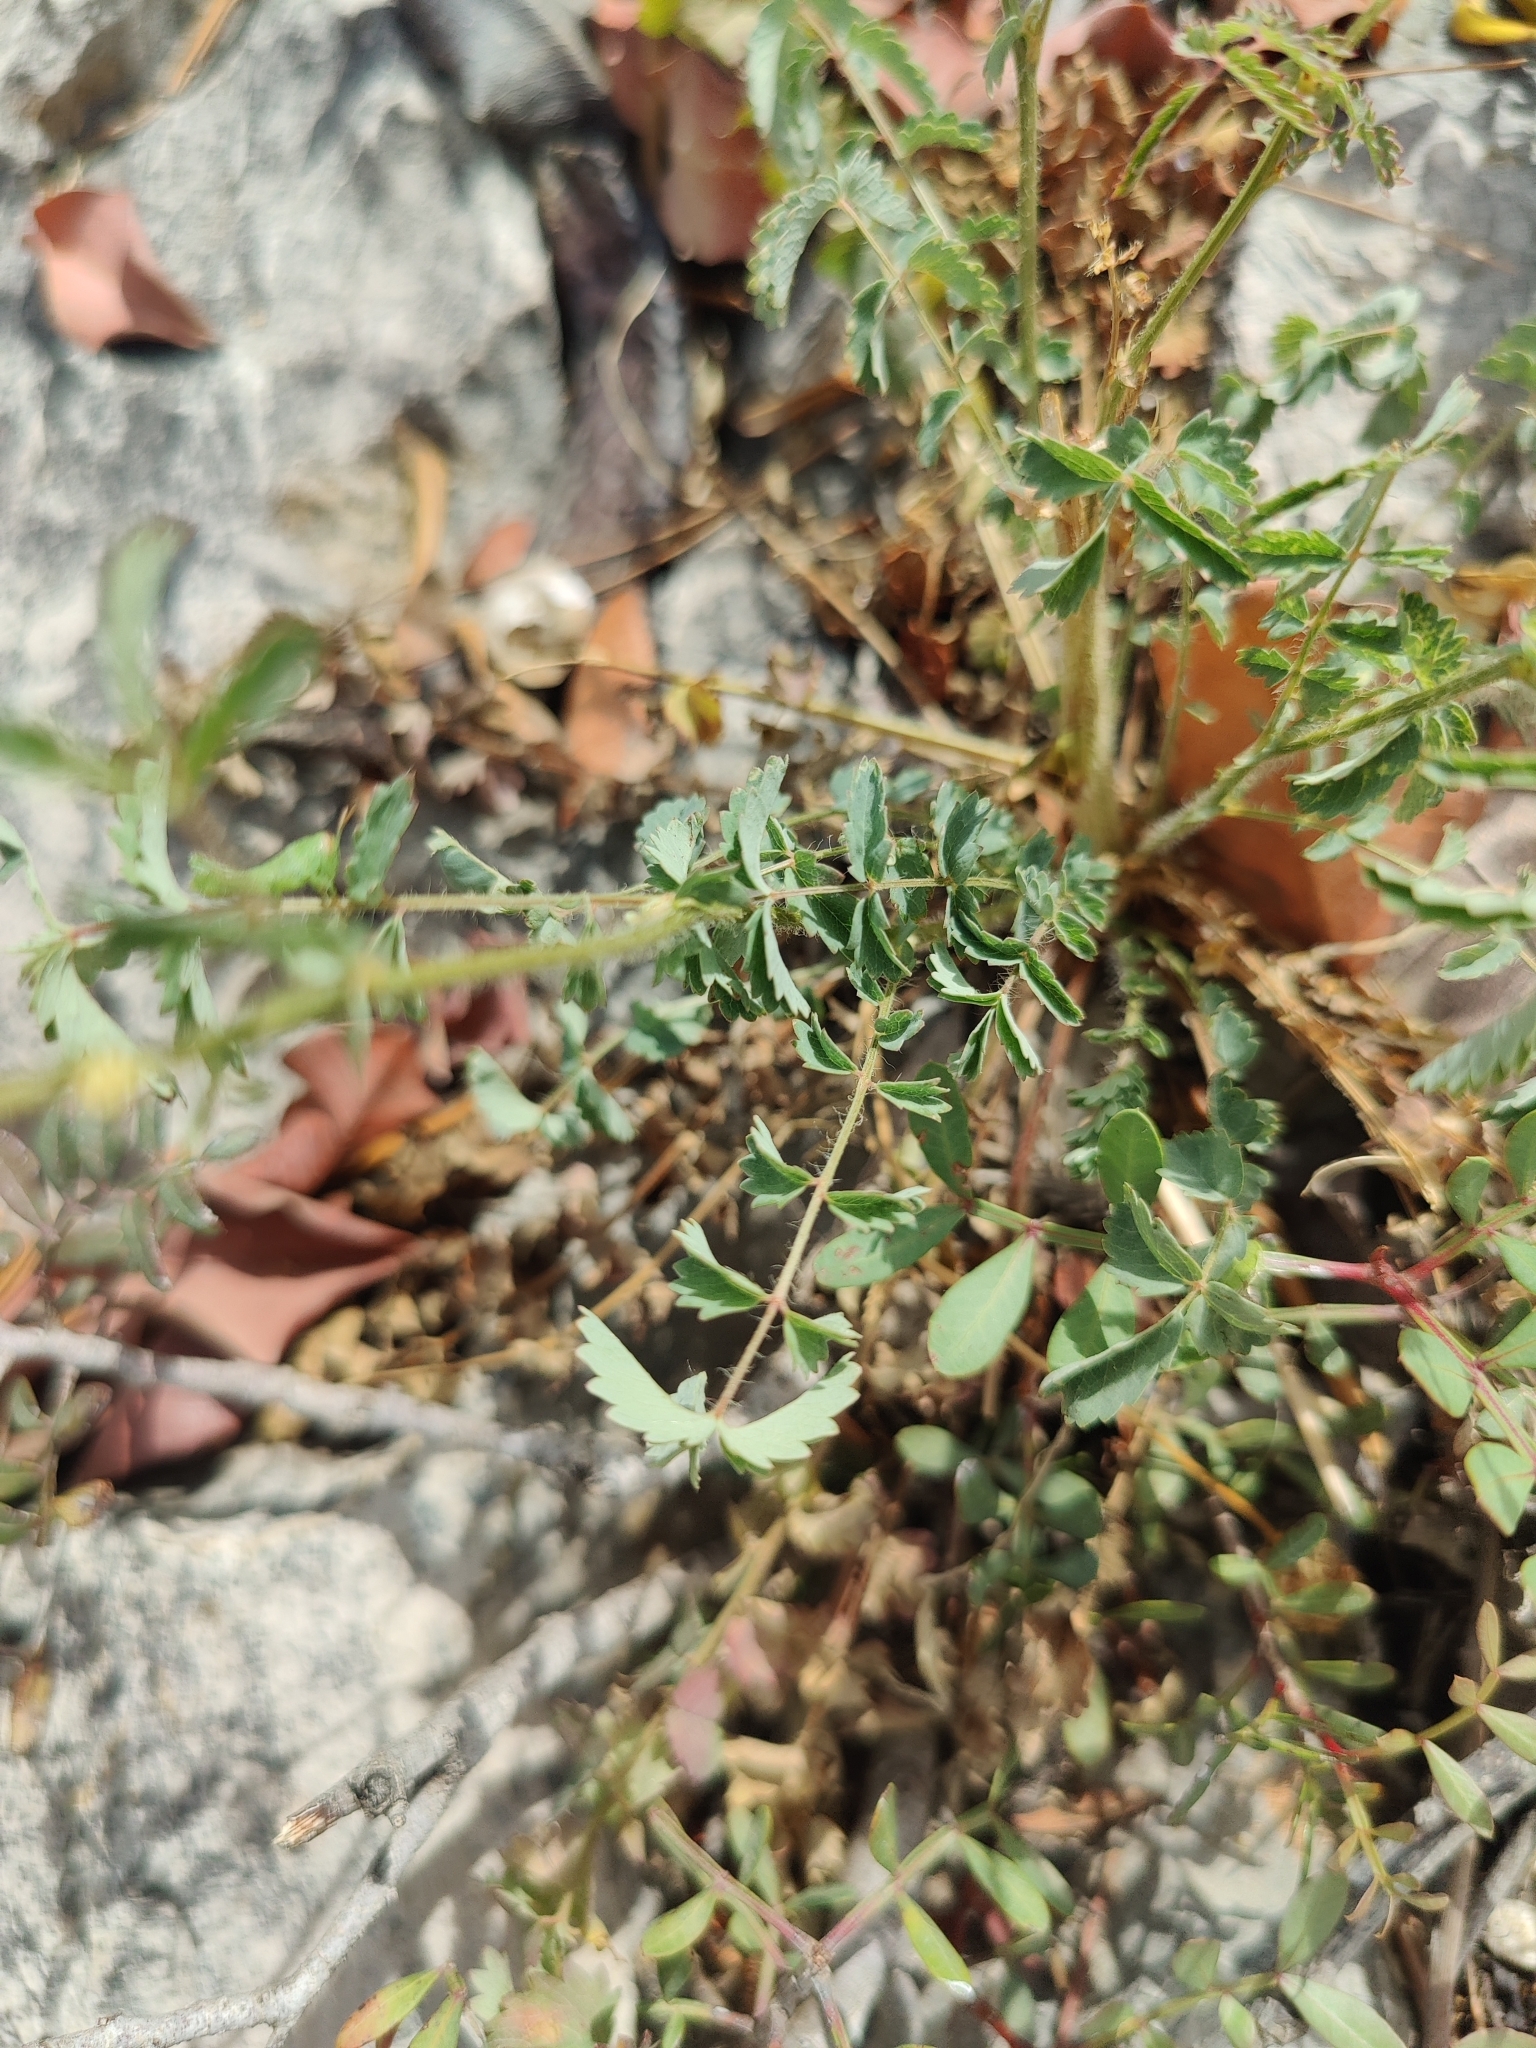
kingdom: Plantae
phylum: Tracheophyta
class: Magnoliopsida
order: Rosales
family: Rosaceae
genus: Poterium
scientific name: Poterium sanguisorba
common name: Salad burnet
